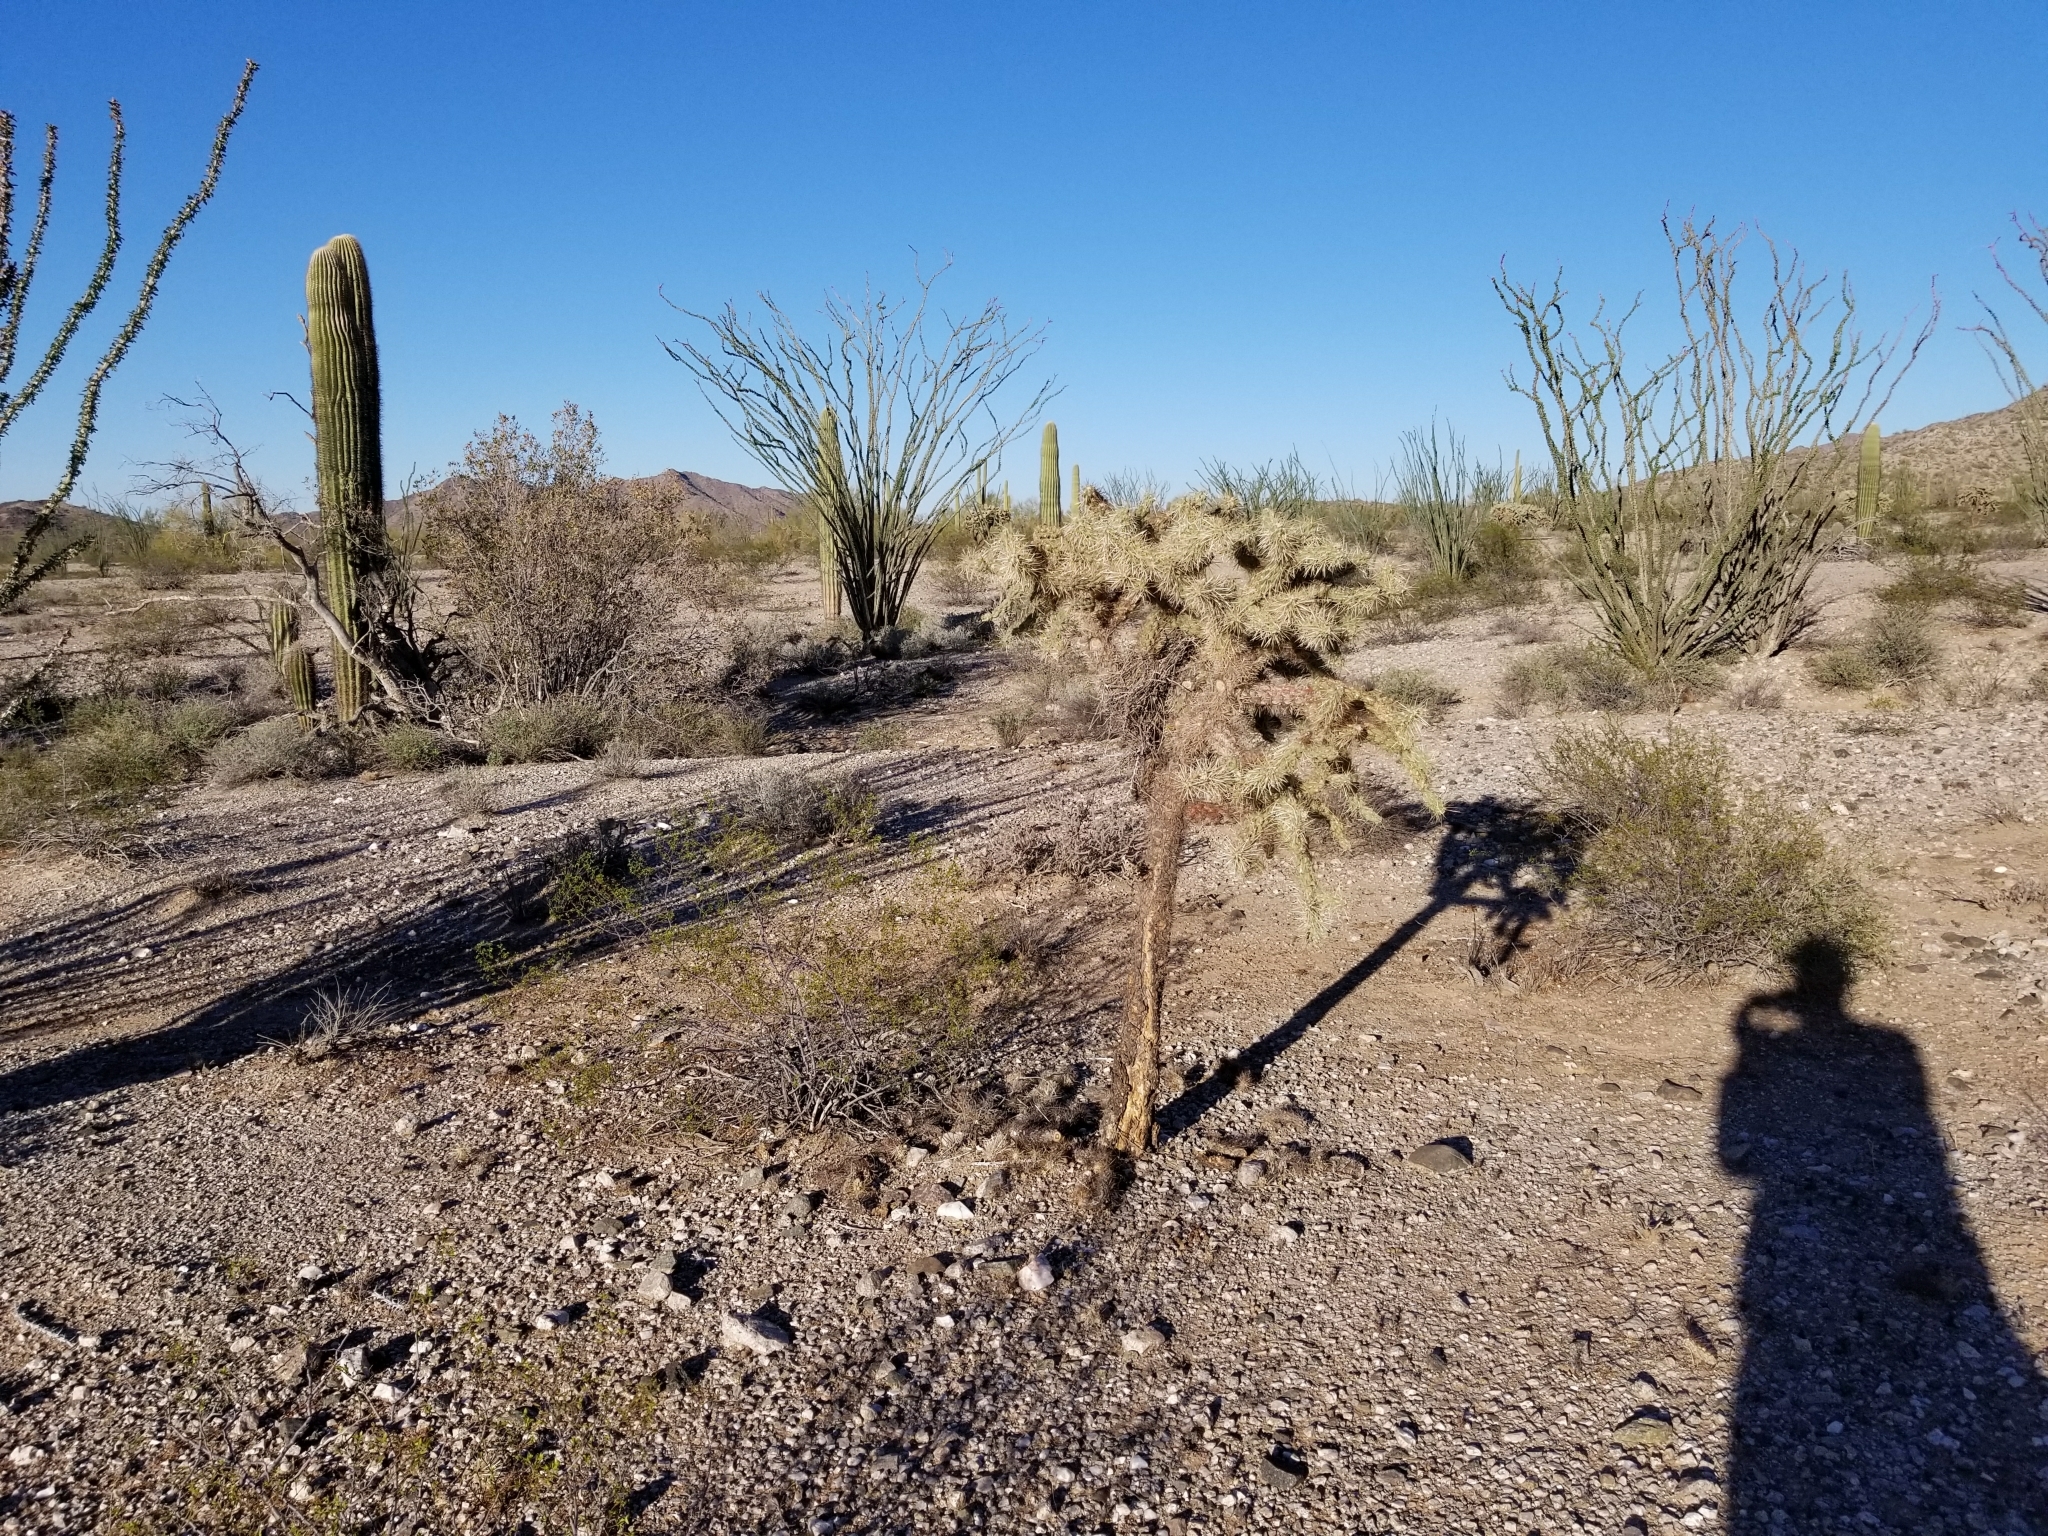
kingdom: Plantae
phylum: Tracheophyta
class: Magnoliopsida
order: Caryophyllales
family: Cactaceae
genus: Cylindropuntia
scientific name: Cylindropuntia fulgida
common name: Jumping cholla
